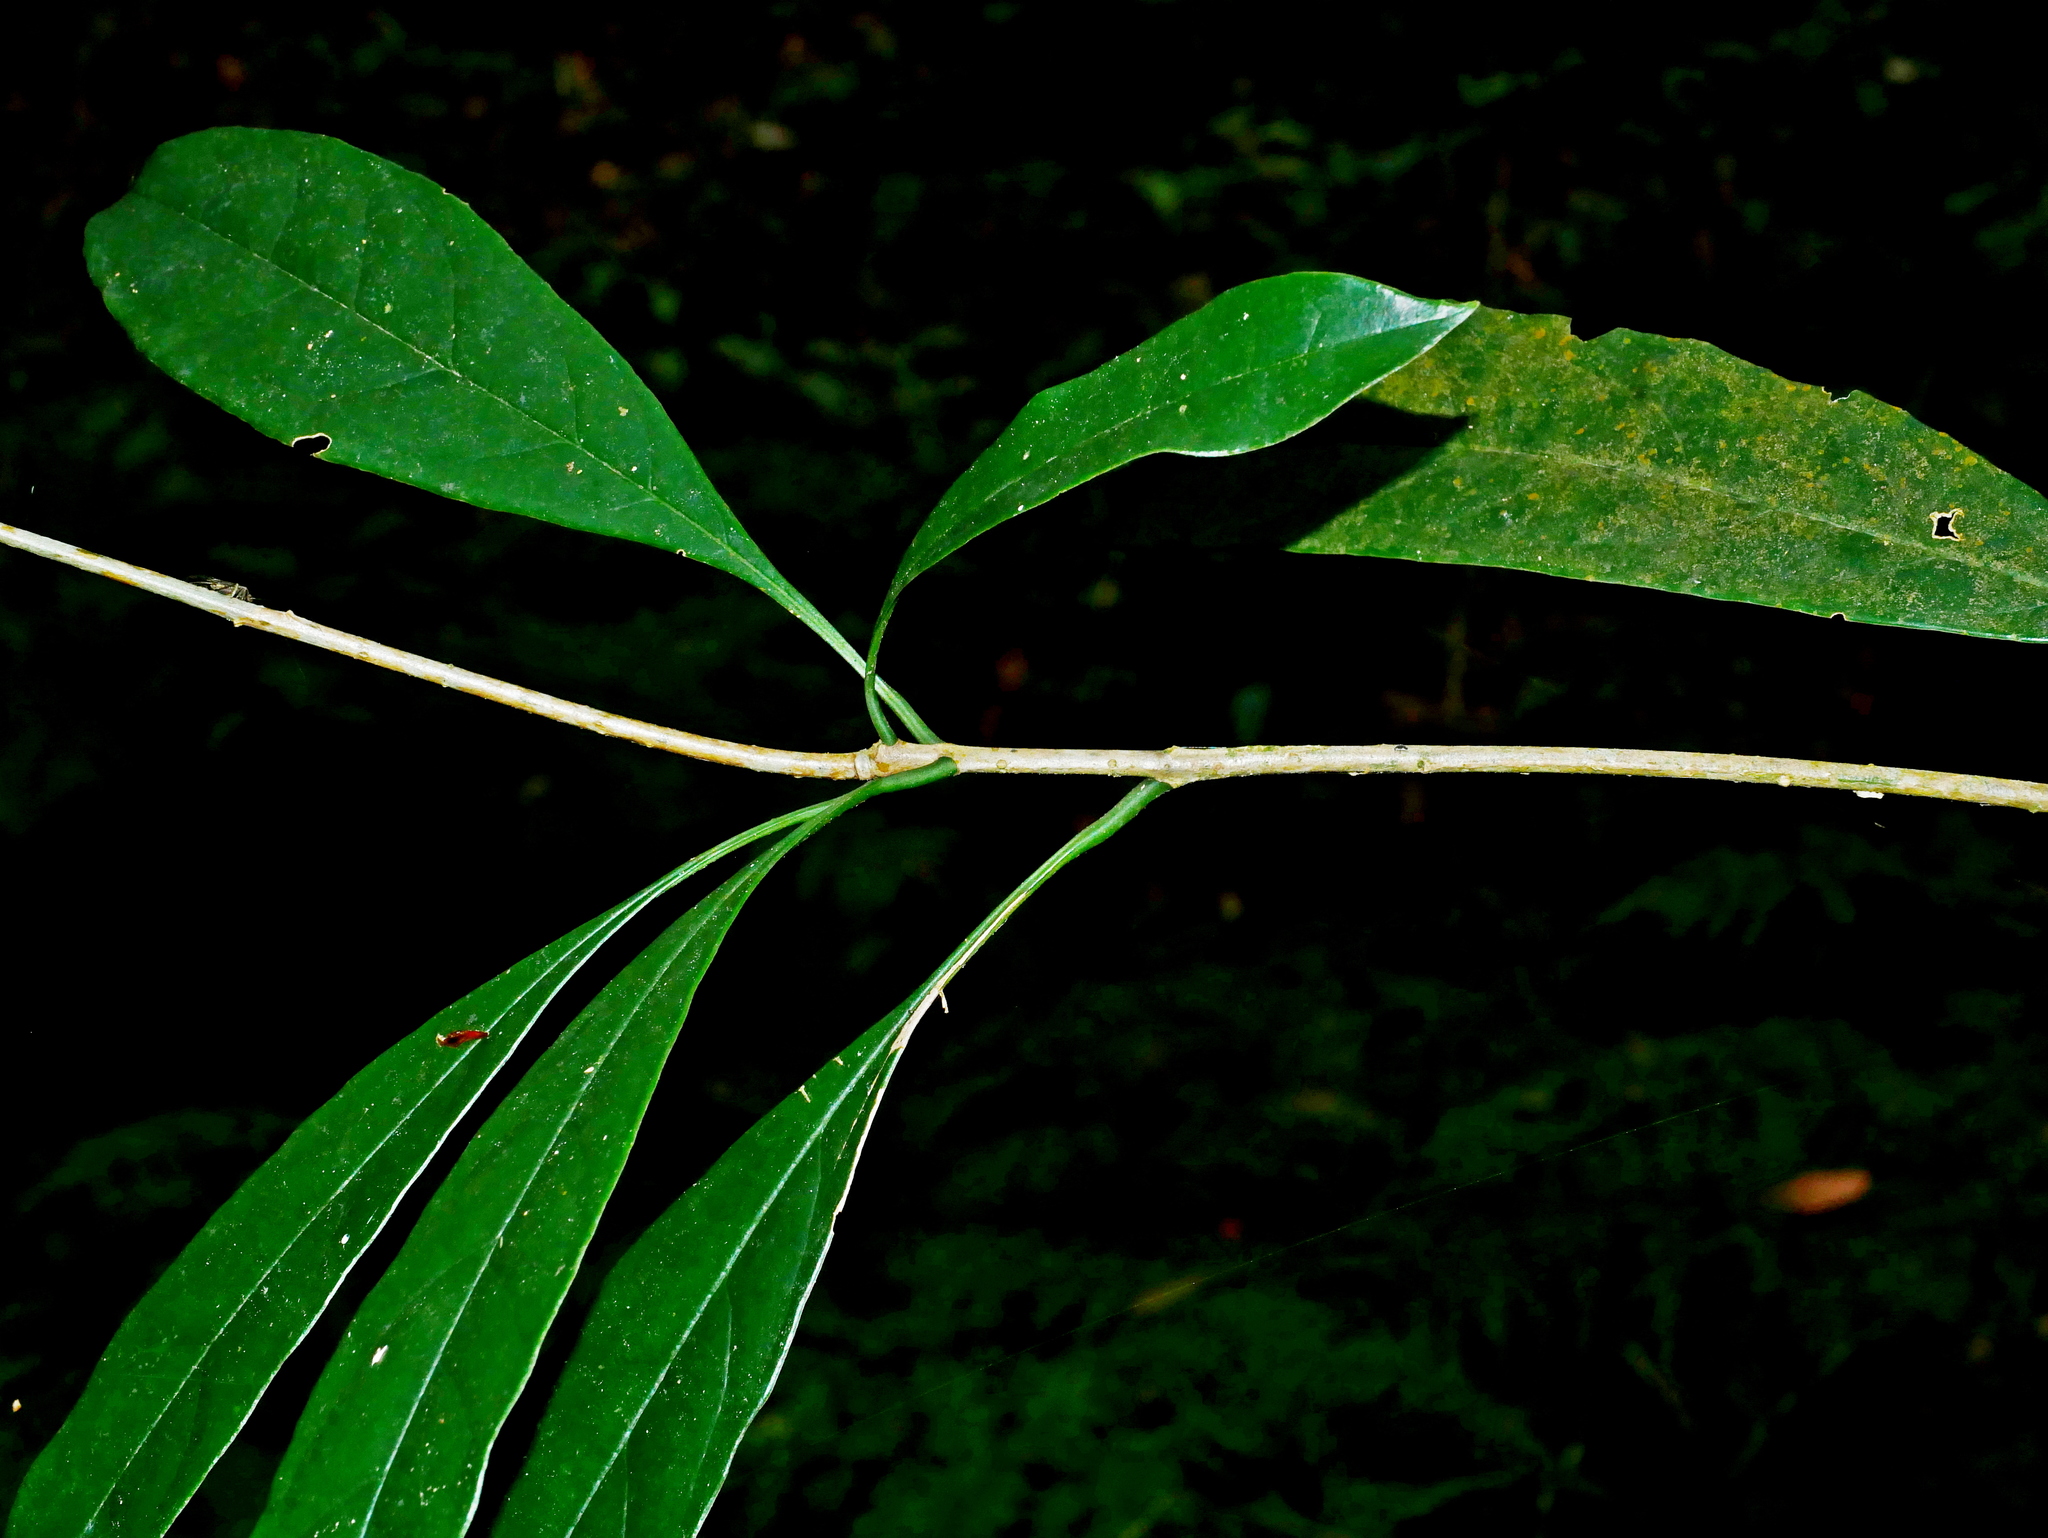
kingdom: Plantae
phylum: Tracheophyta
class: Magnoliopsida
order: Lamiales
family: Oleaceae
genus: Osmanthus
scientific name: Osmanthus lanceolatus
